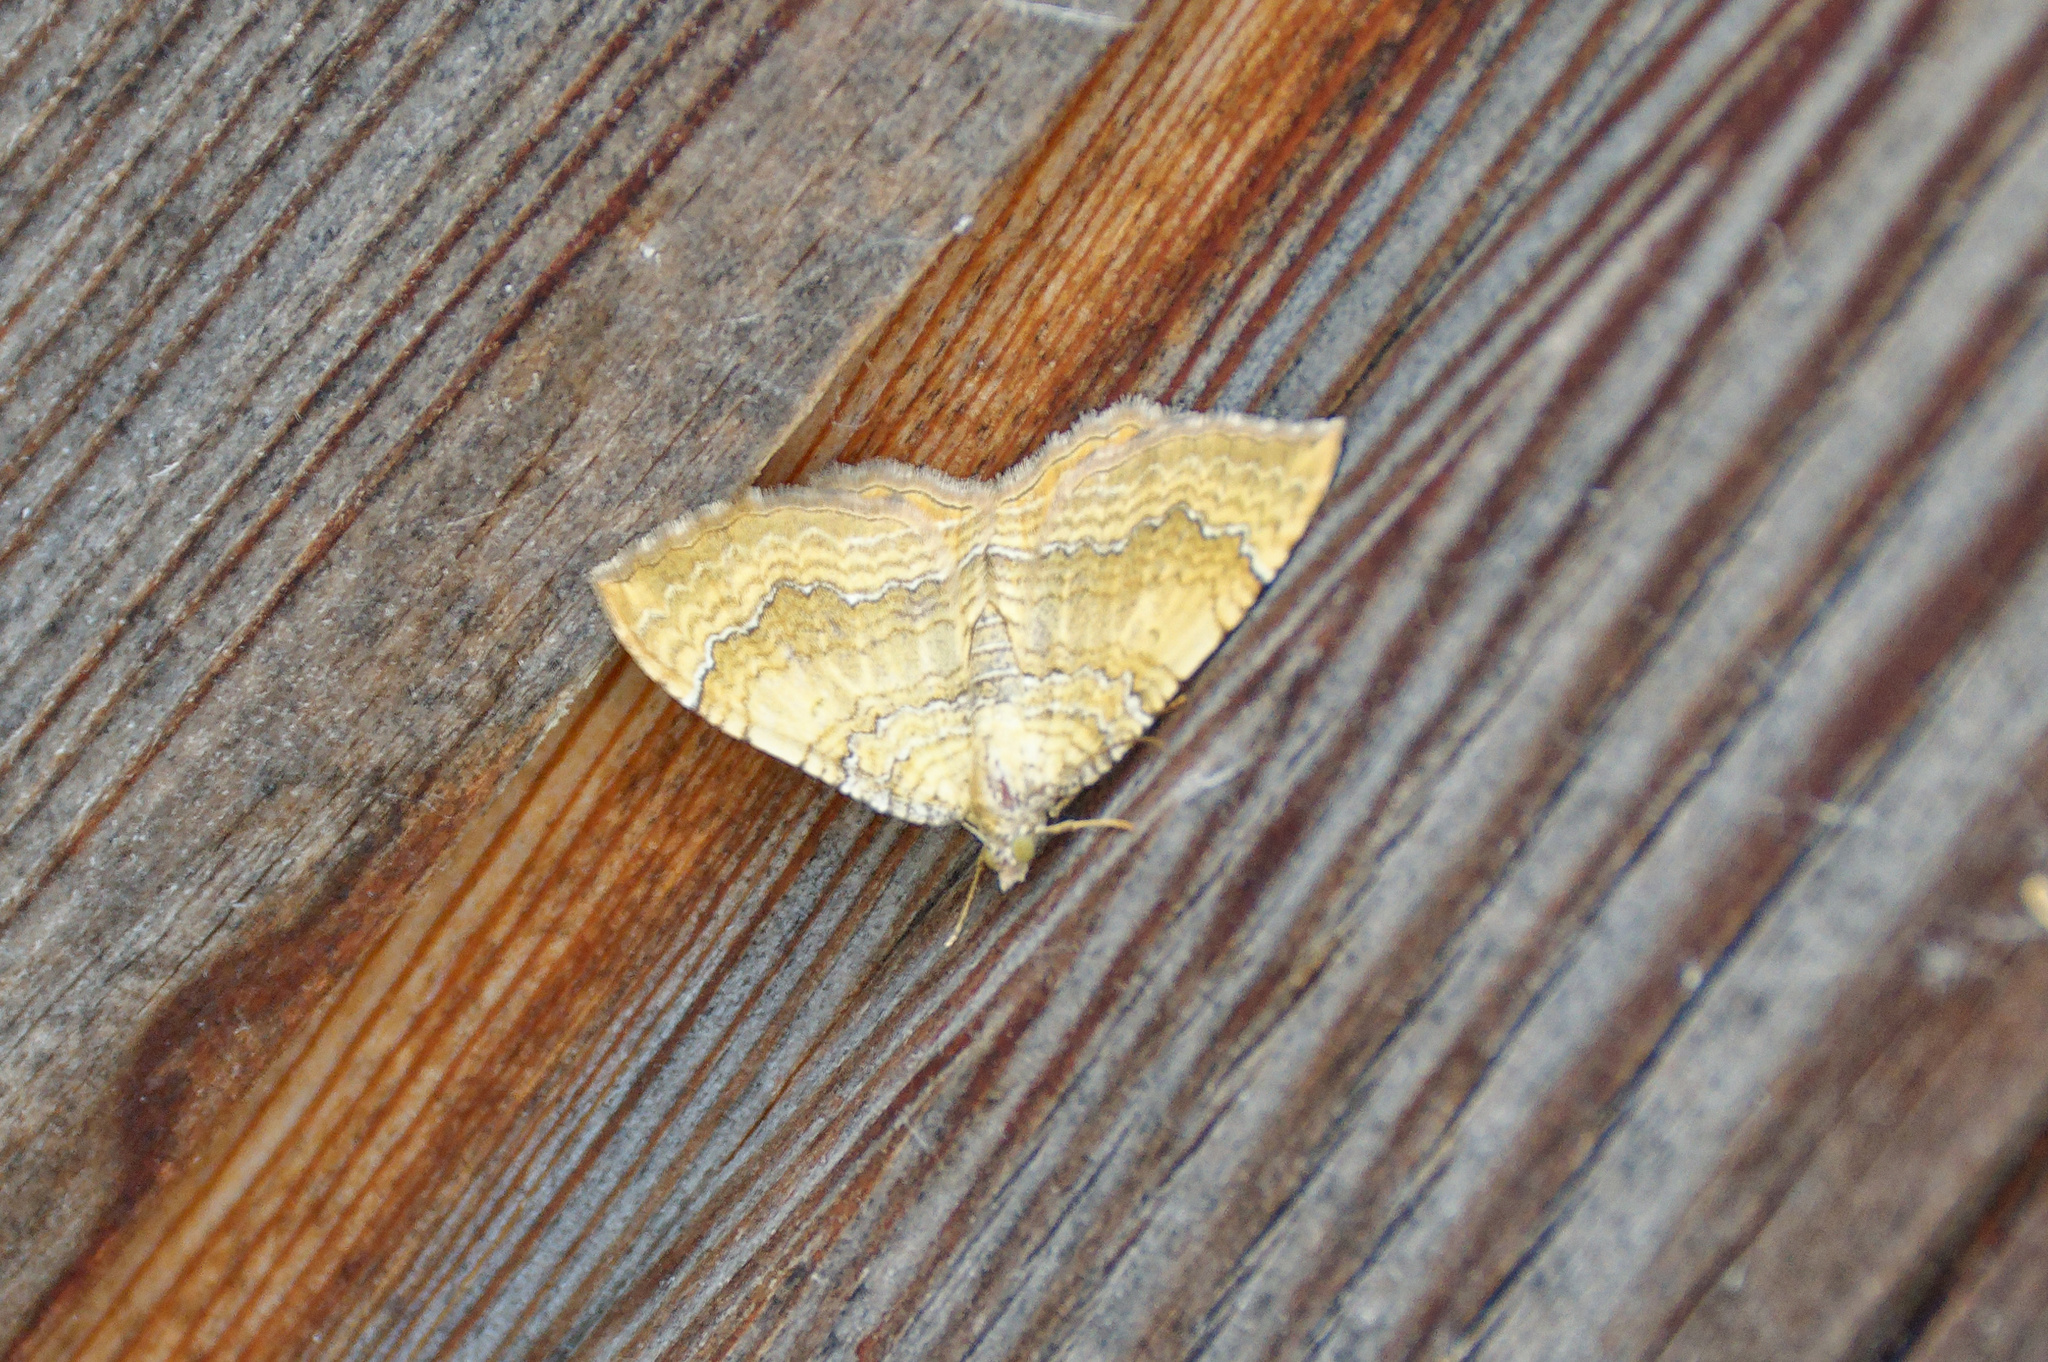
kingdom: Animalia
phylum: Arthropoda
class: Insecta
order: Lepidoptera
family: Geometridae
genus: Camptogramma
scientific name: Camptogramma bilineata
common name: Yellow shell
